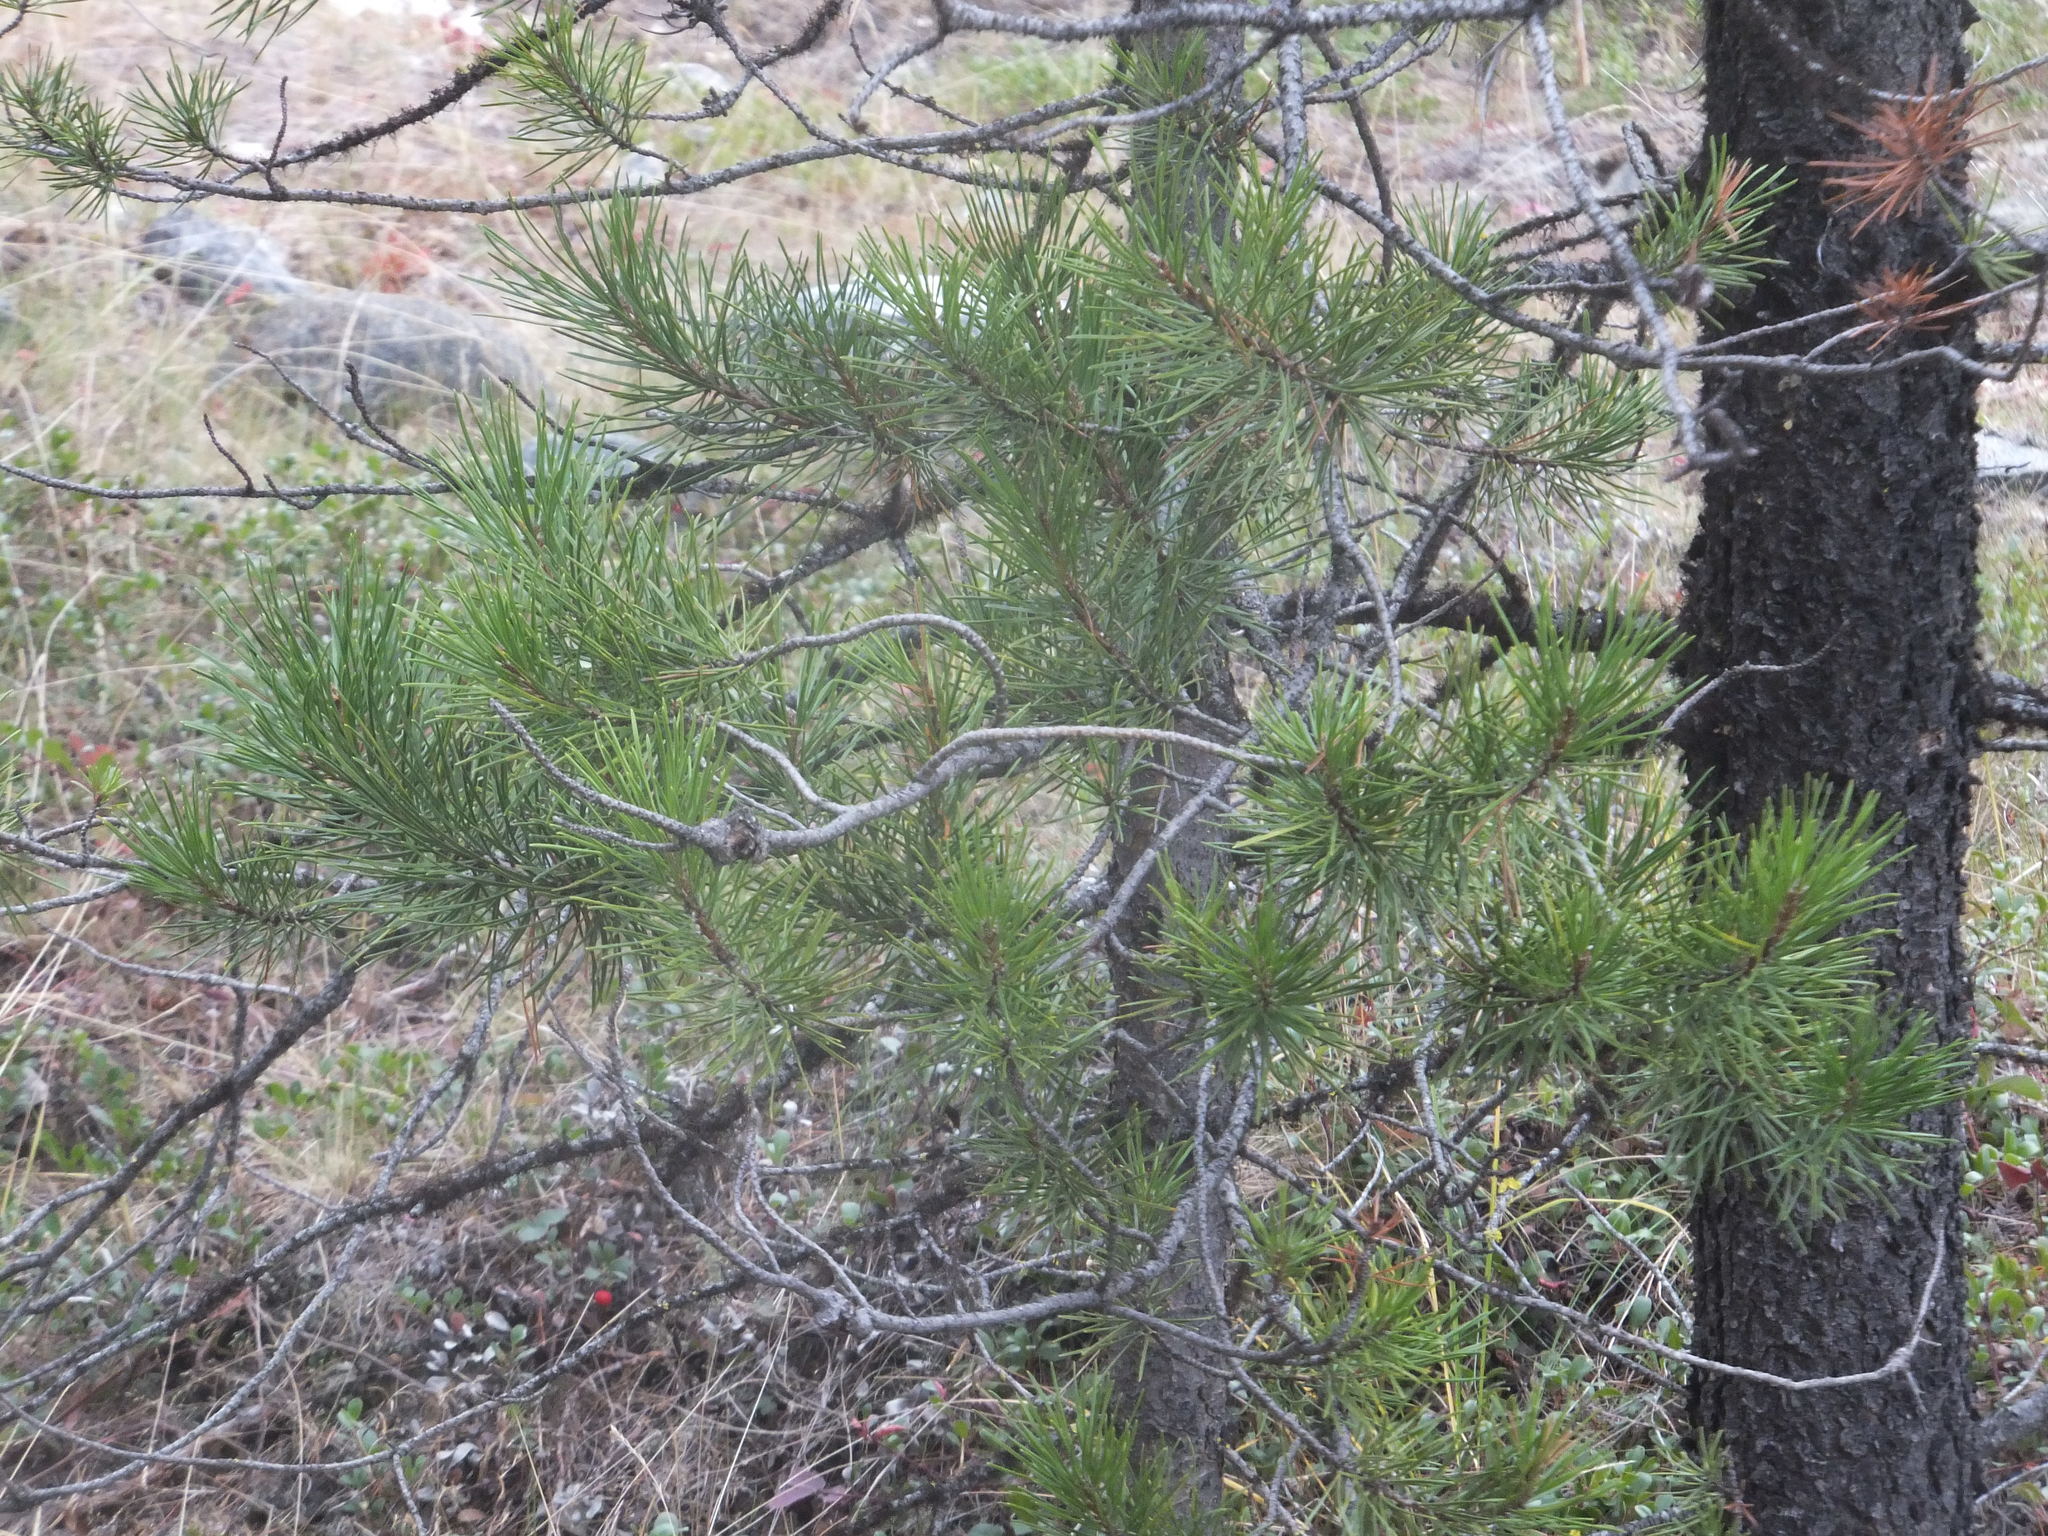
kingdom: Plantae
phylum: Tracheophyta
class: Pinopsida
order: Pinales
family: Pinaceae
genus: Pinus
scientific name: Pinus contorta
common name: Lodgepole pine
